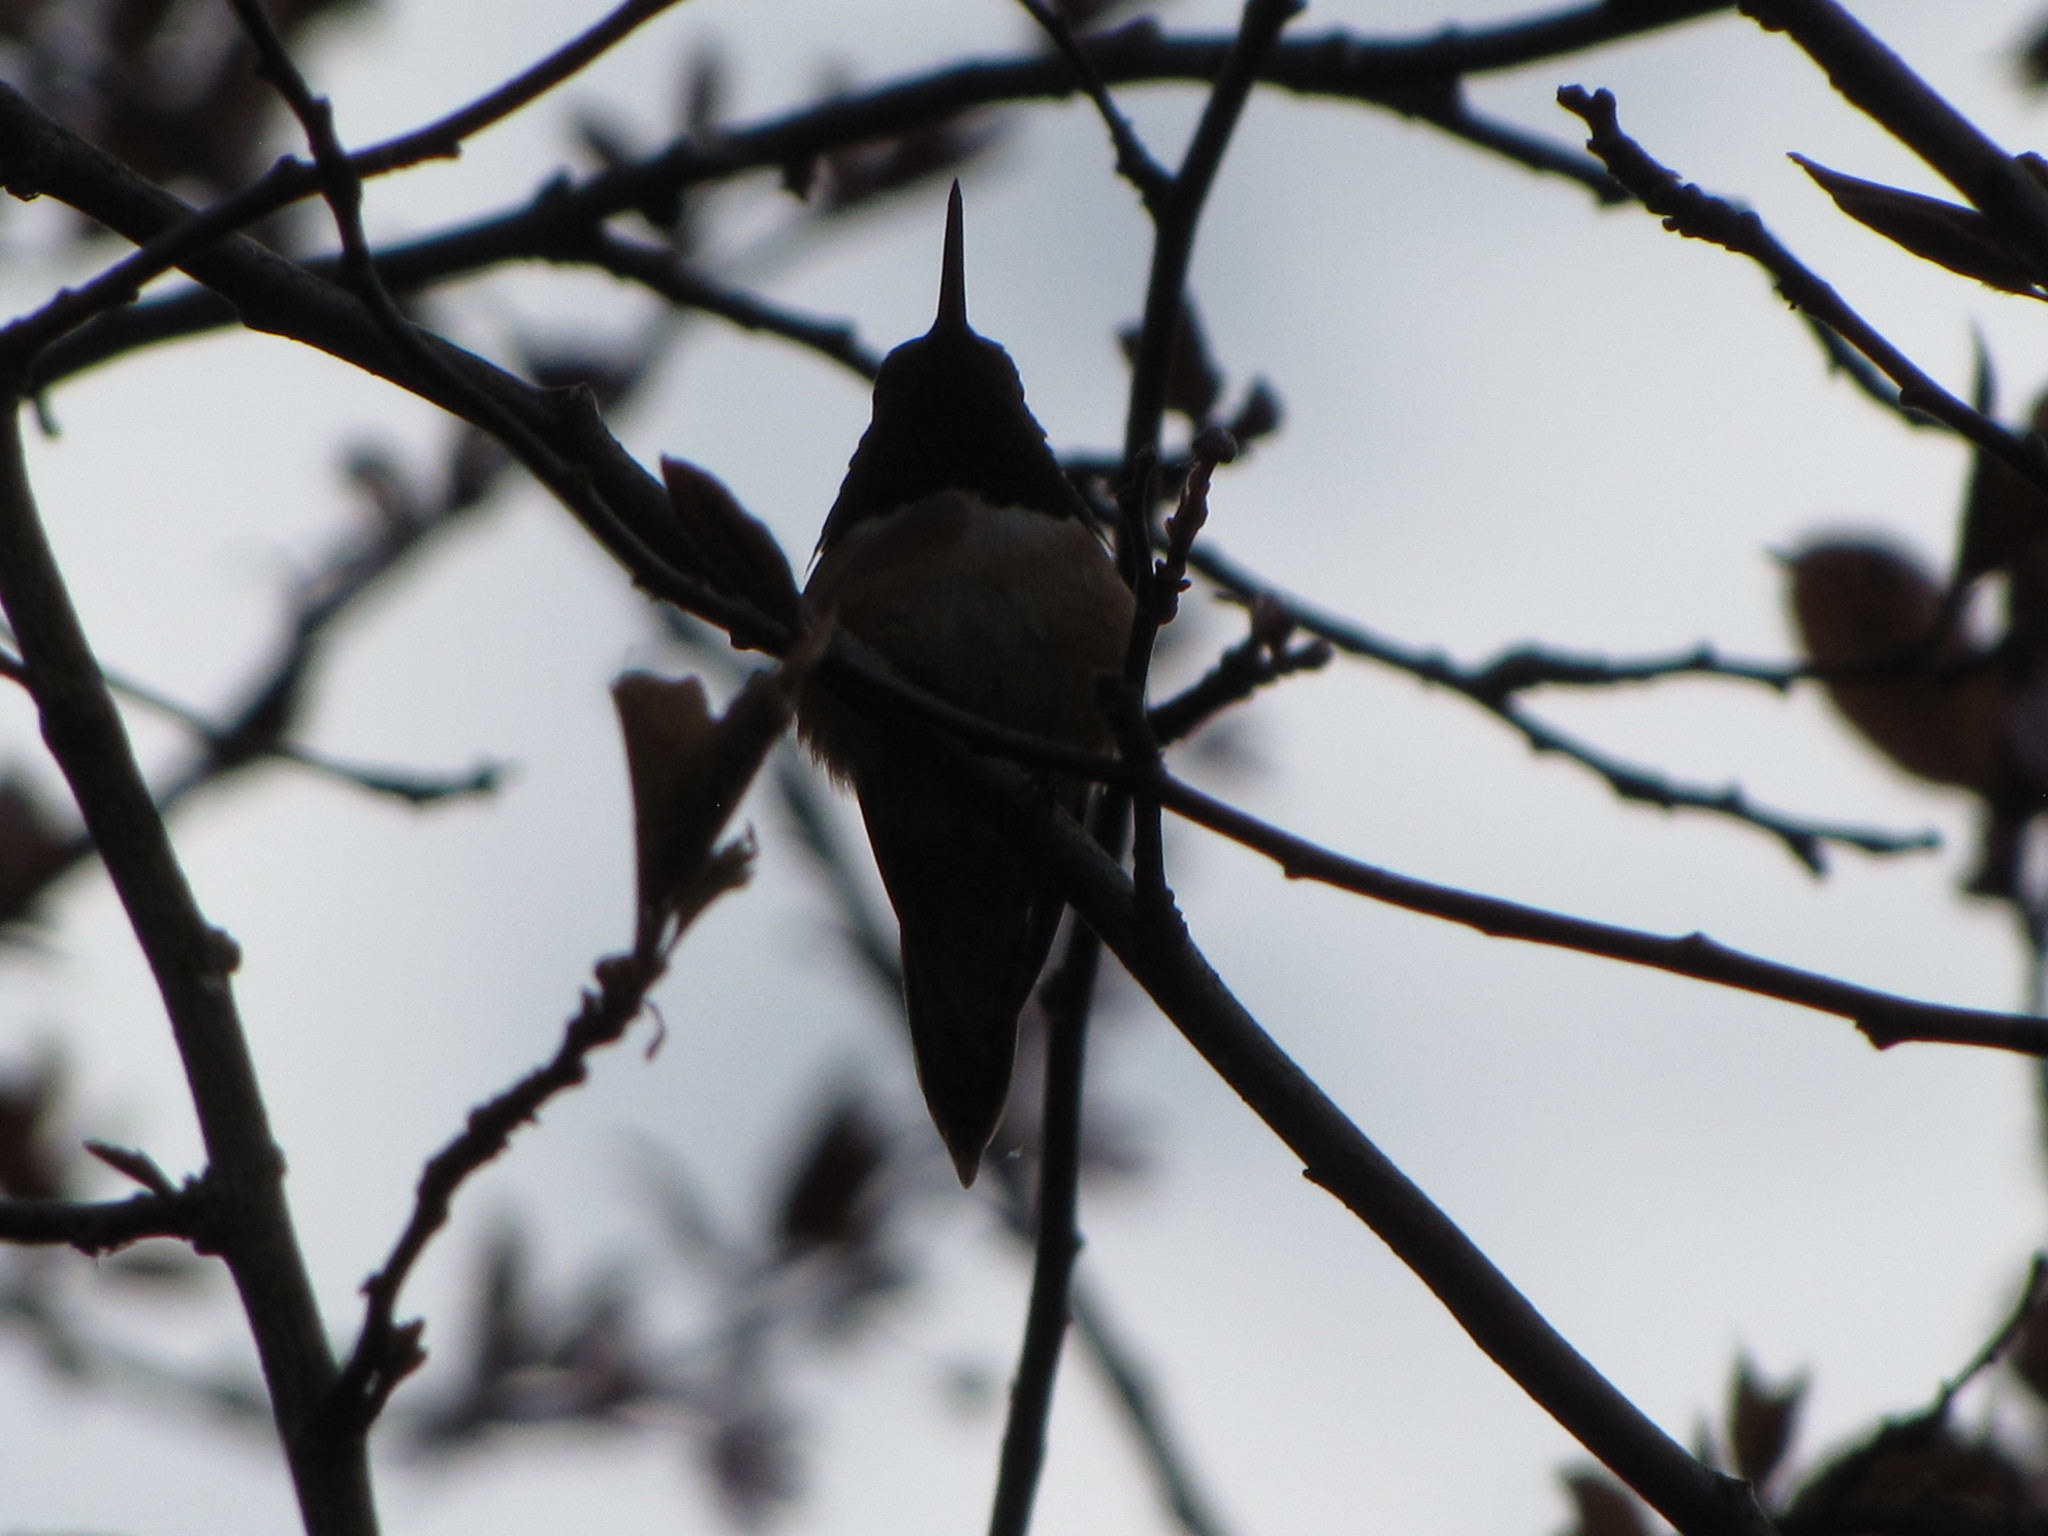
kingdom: Animalia
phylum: Chordata
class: Aves
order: Apodiformes
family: Trochilidae
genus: Selasphorus
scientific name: Selasphorus rufus
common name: Rufous hummingbird
